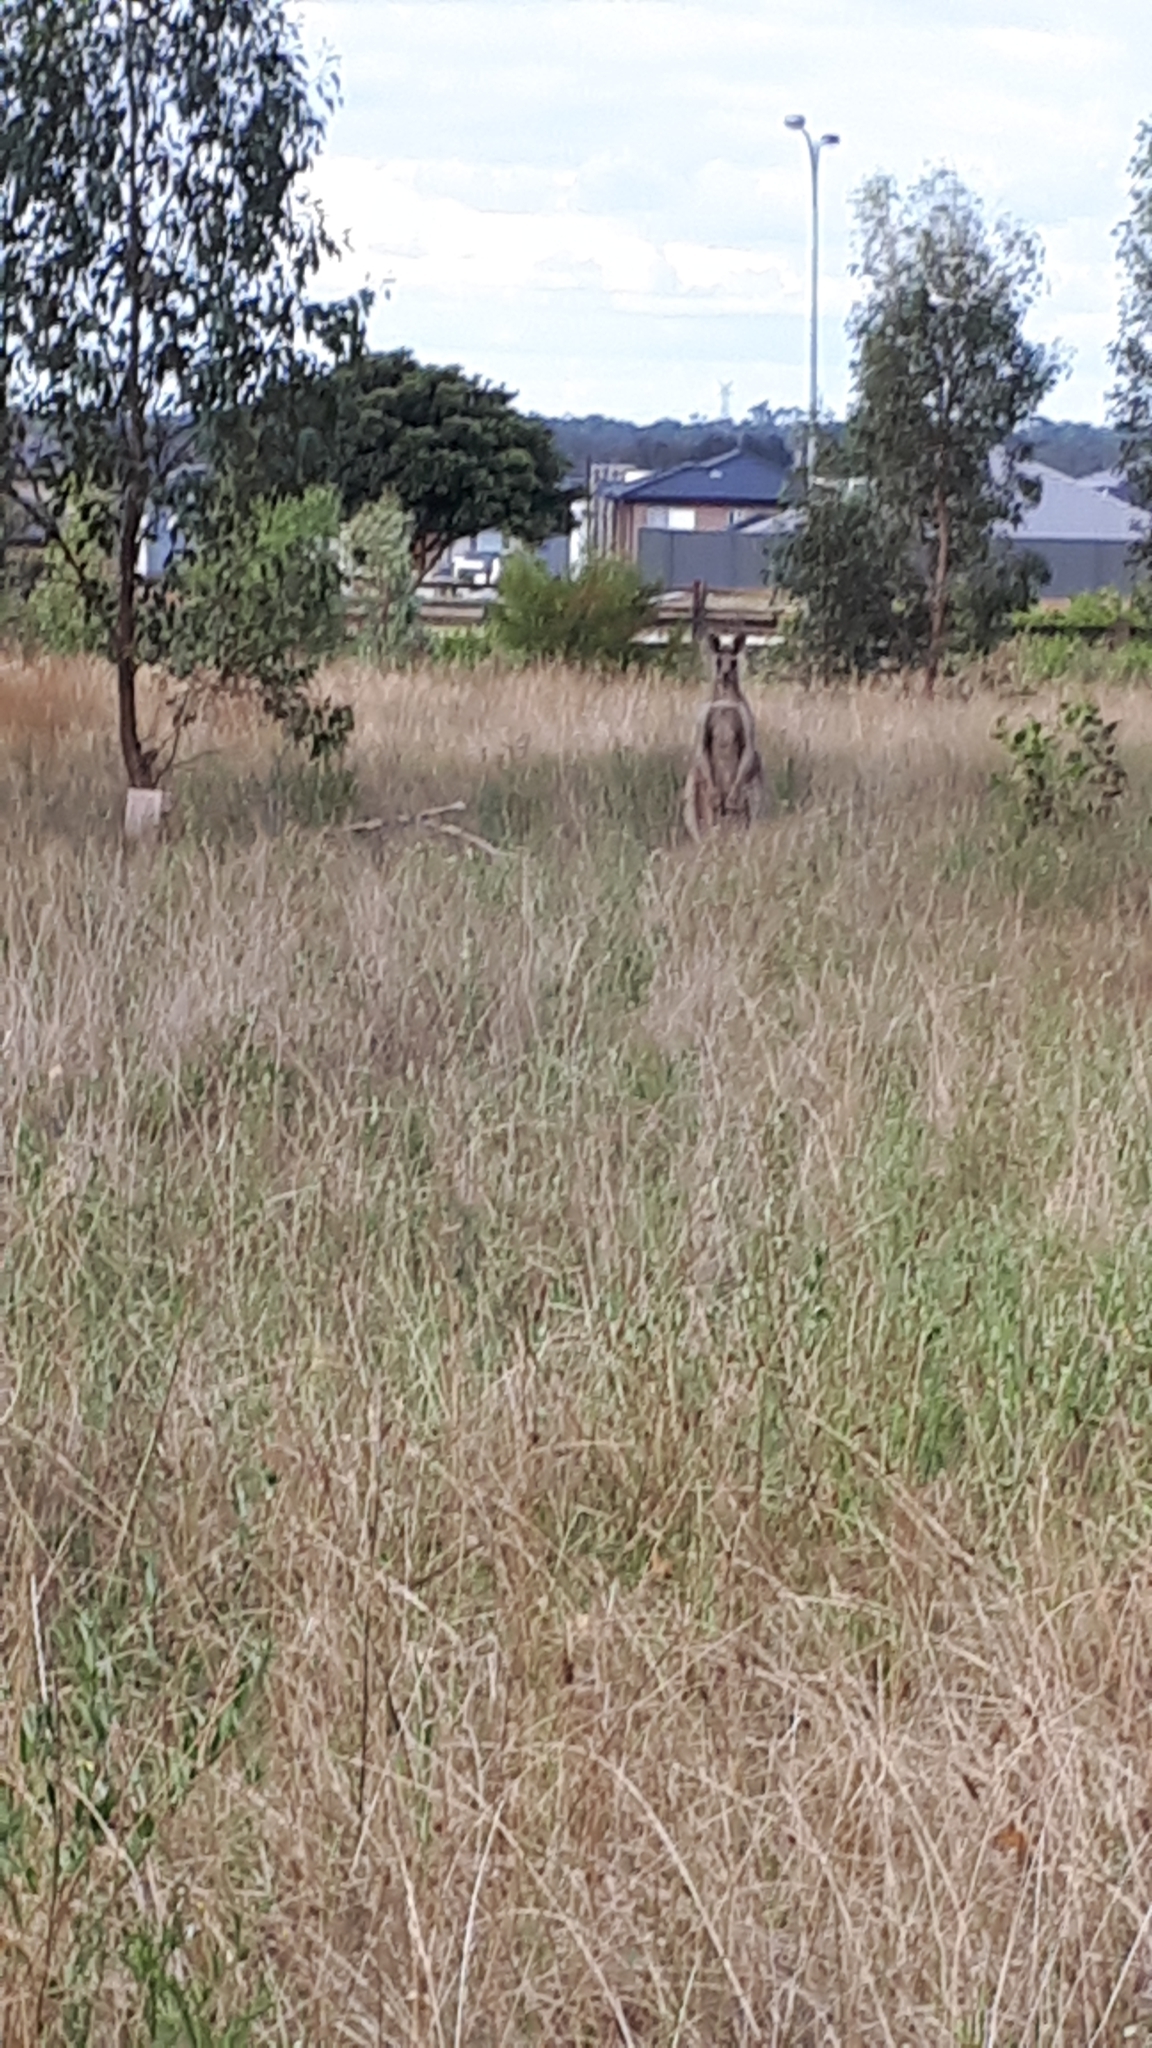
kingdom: Animalia
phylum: Chordata
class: Mammalia
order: Diprotodontia
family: Macropodidae
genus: Macropus
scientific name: Macropus giganteus
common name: Eastern grey kangaroo
